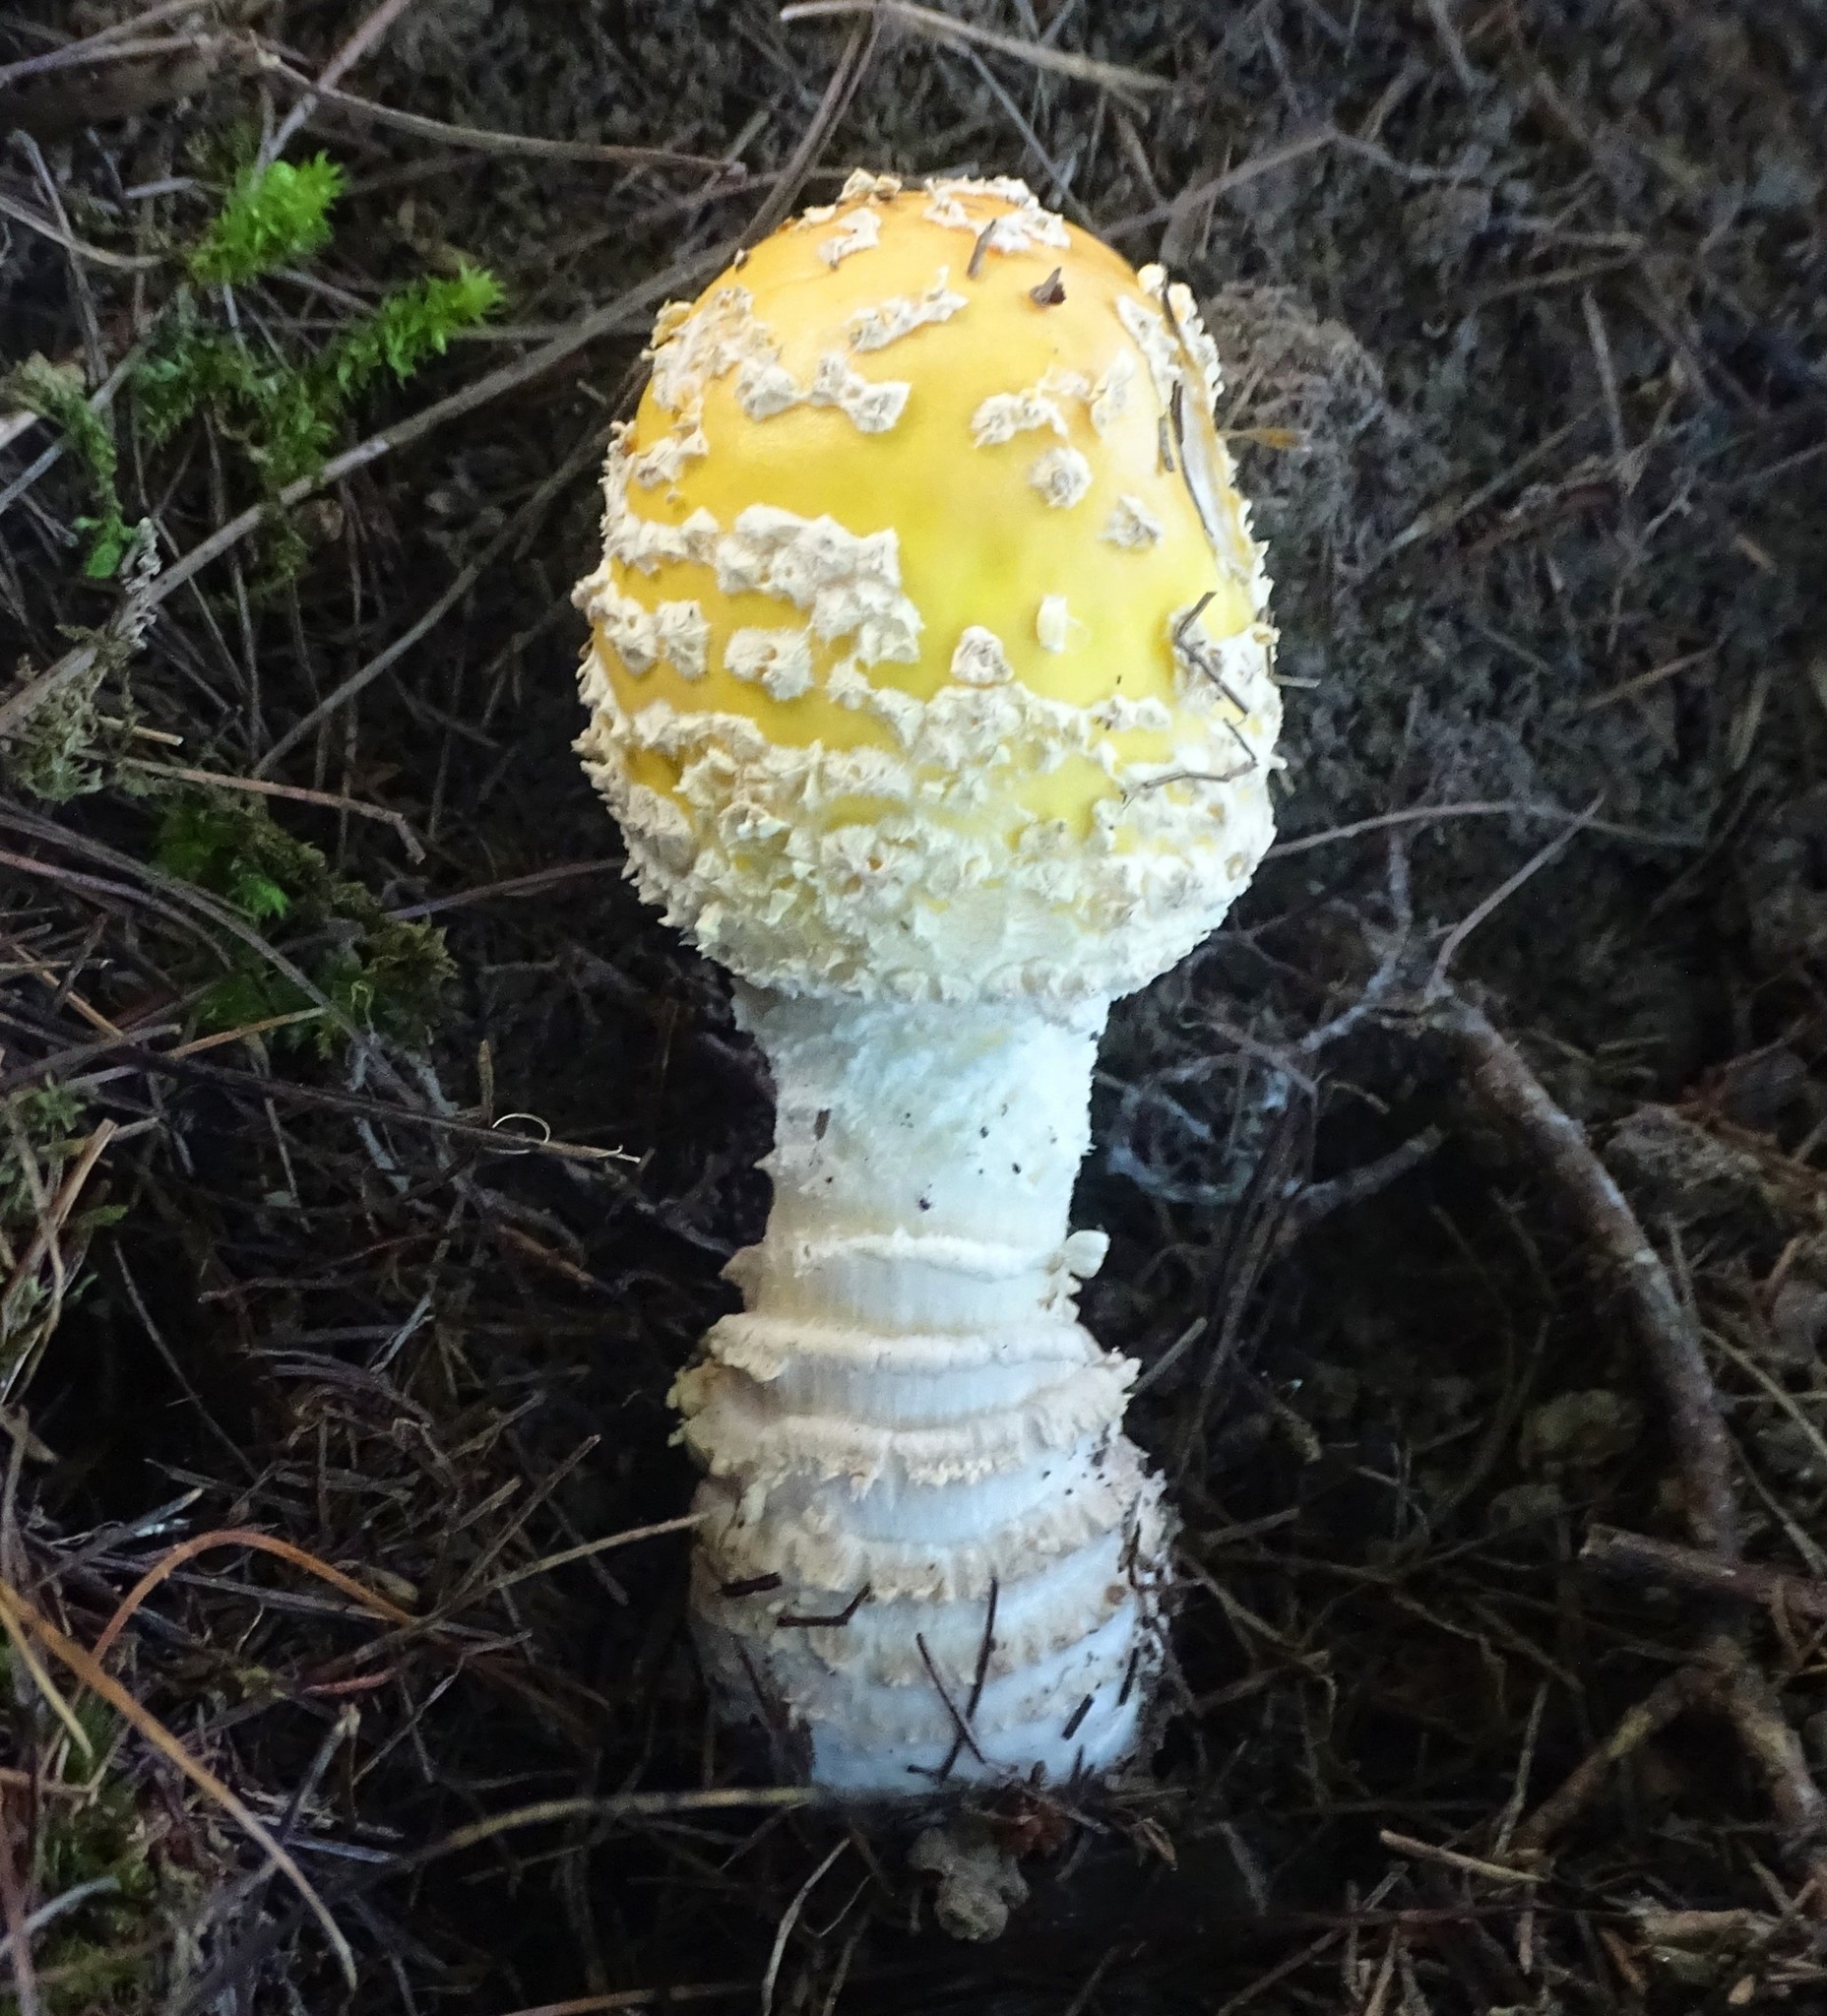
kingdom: Fungi
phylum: Basidiomycota
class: Agaricomycetes
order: Agaricales
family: Amanitaceae
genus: Amanita
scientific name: Amanita muscaria
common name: Fly agaric
